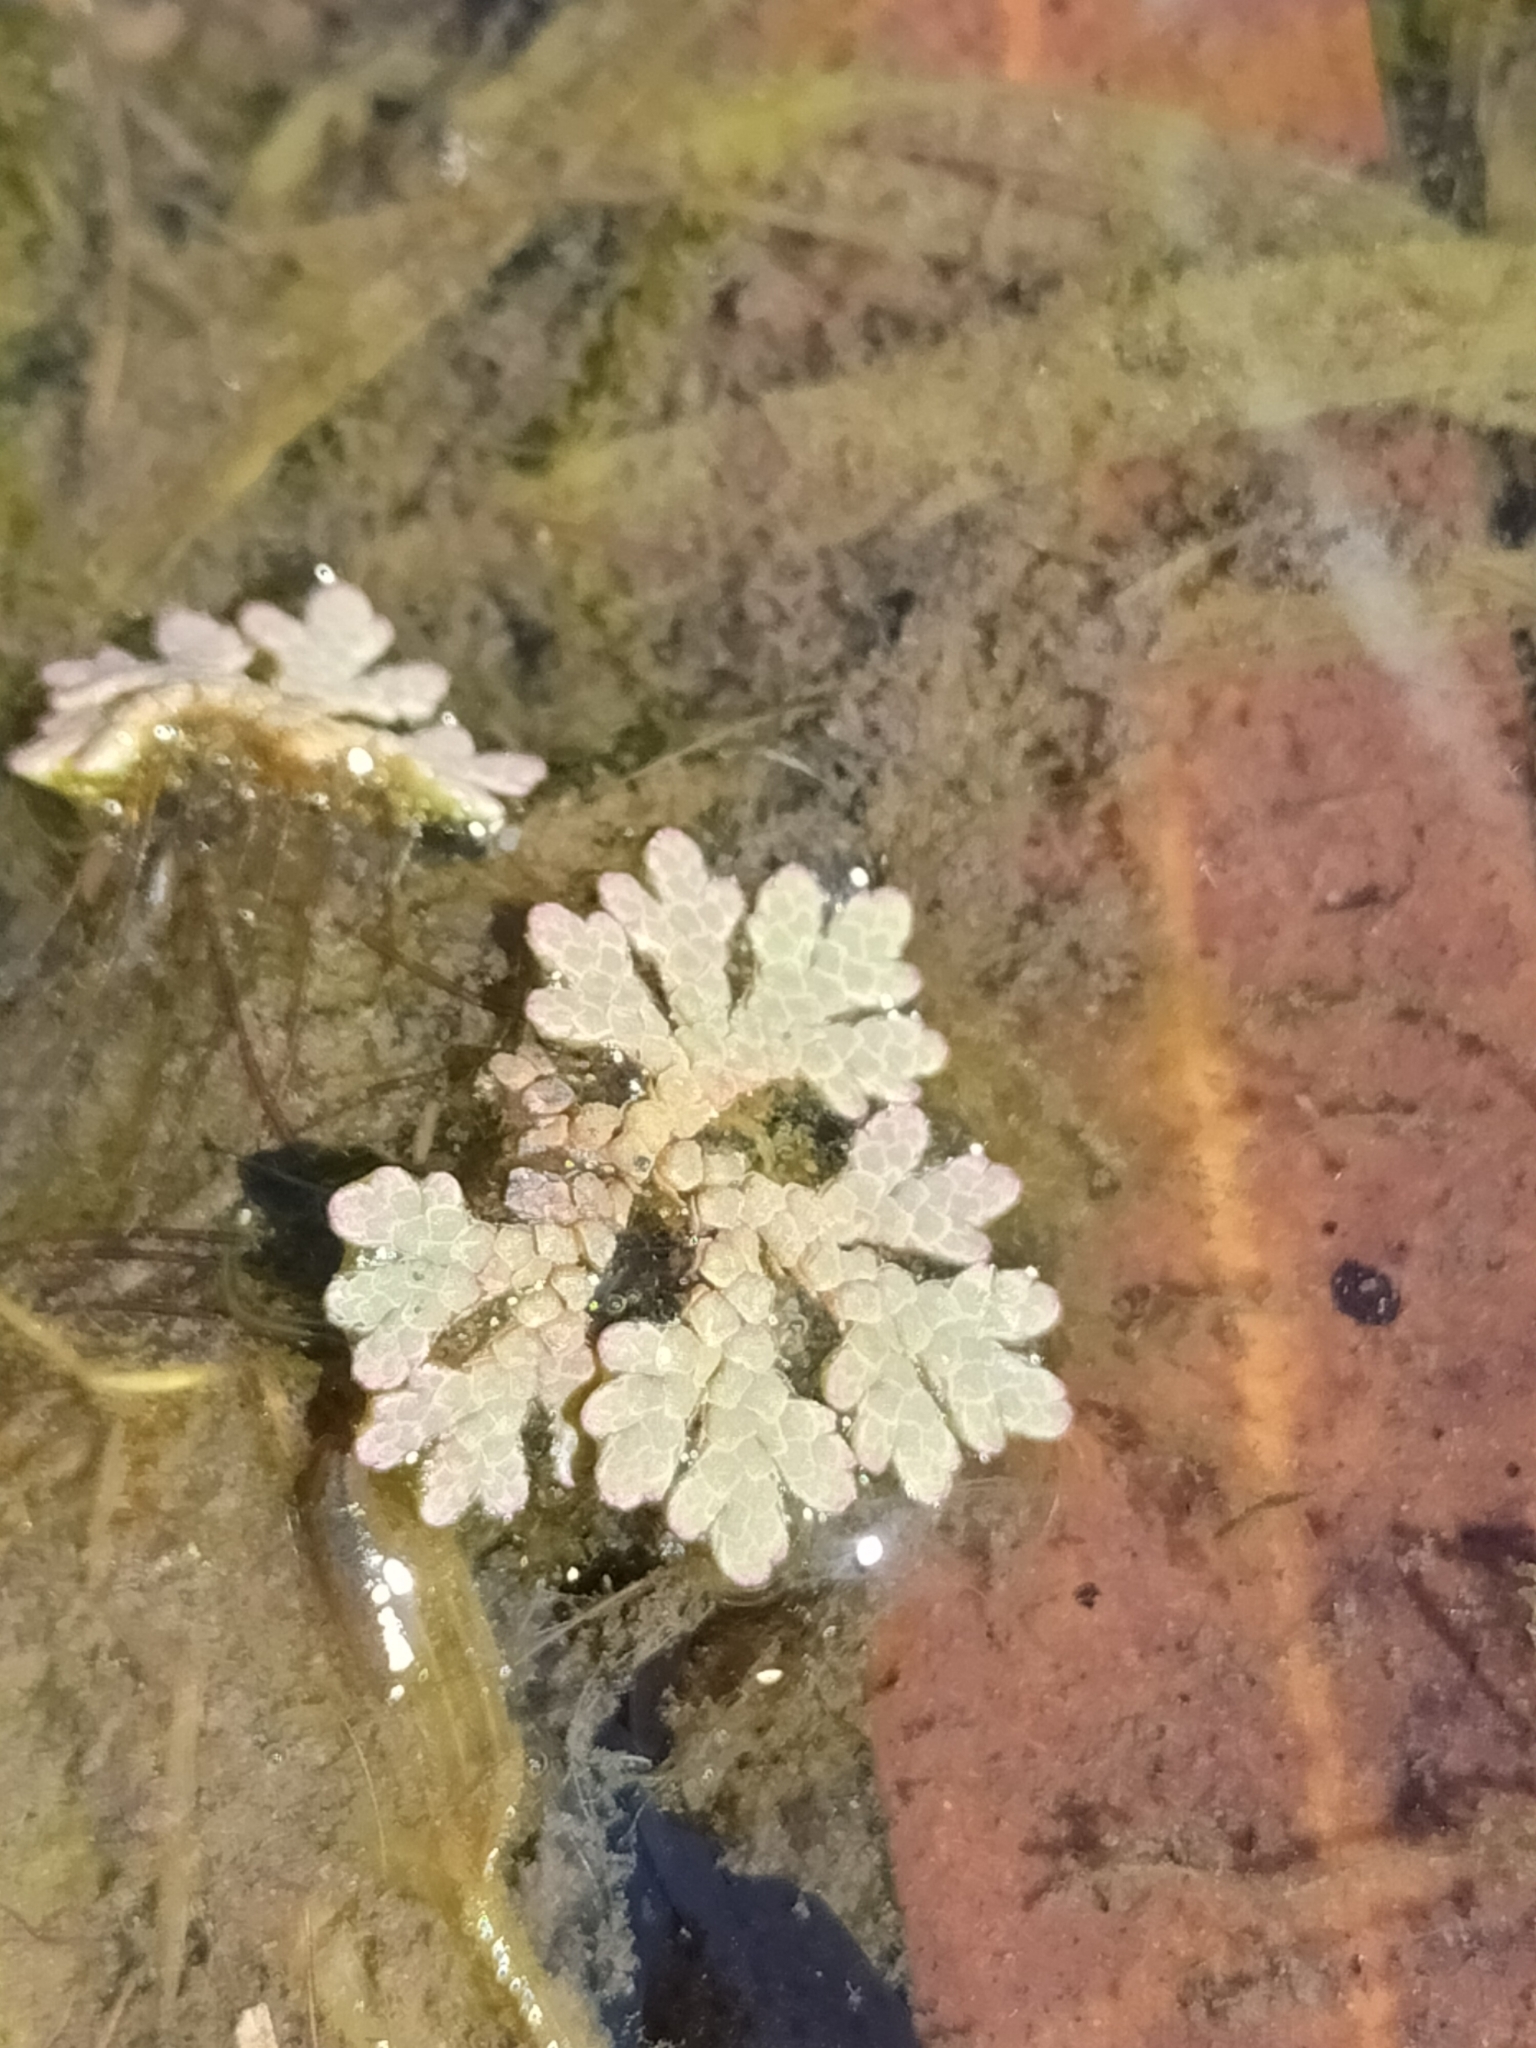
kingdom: Plantae
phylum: Tracheophyta
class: Polypodiopsida
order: Salviniales
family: Salviniaceae
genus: Azolla
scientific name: Azolla rubra
